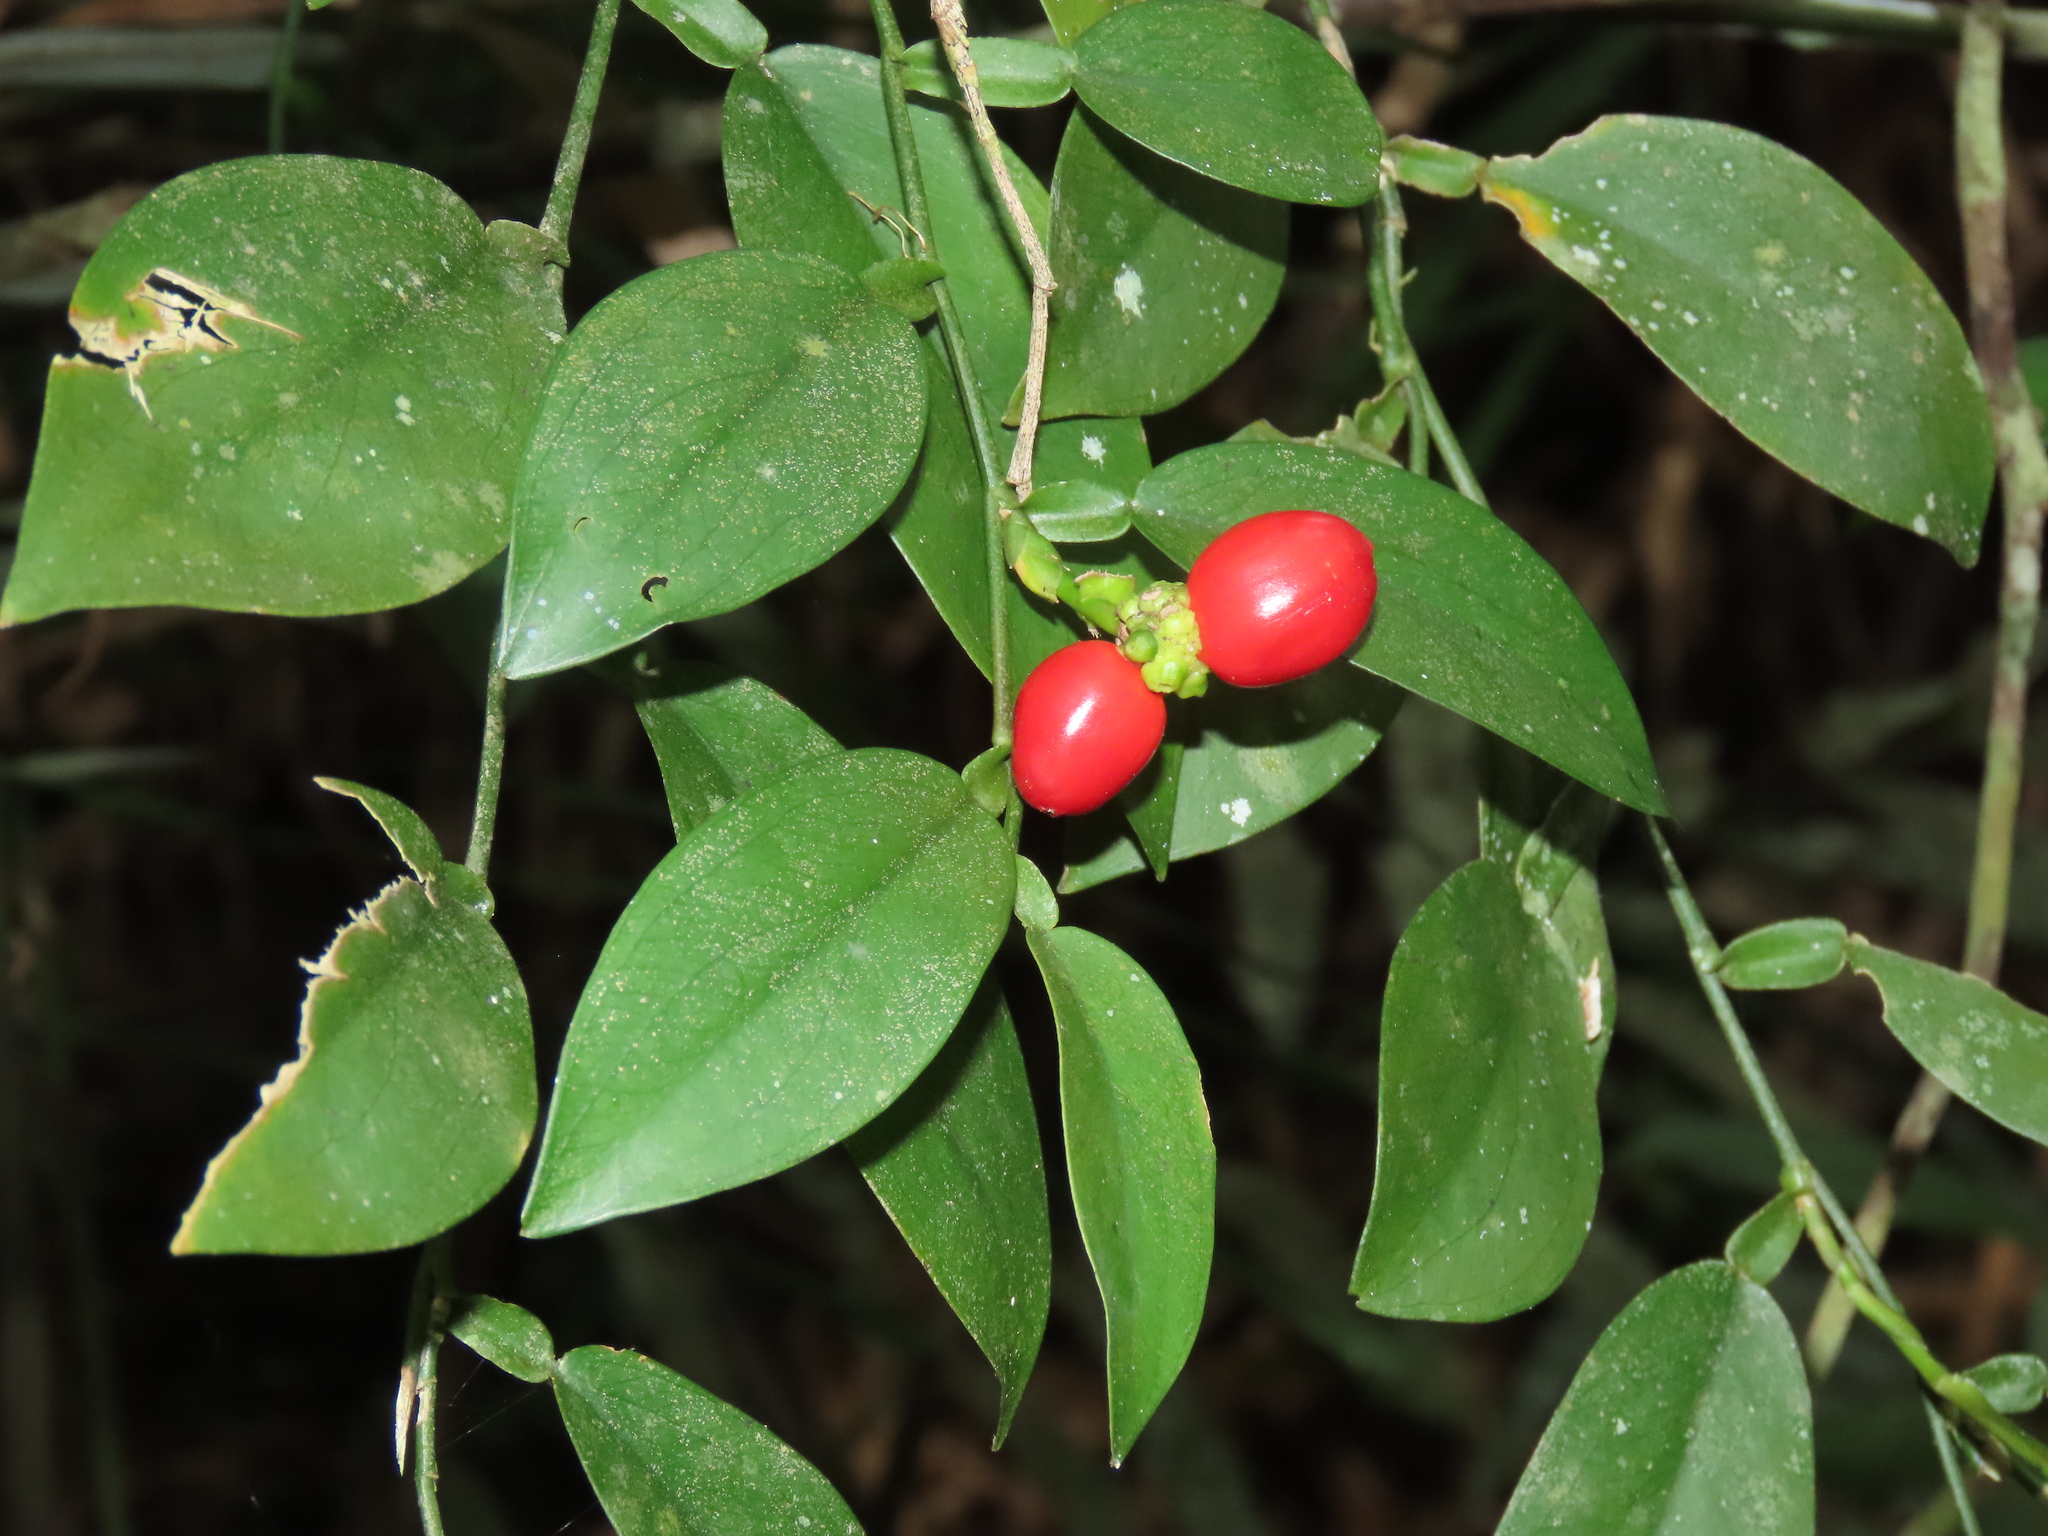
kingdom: Plantae
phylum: Tracheophyta
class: Liliopsida
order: Alismatales
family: Araceae
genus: Pothos
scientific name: Pothos chinensis
